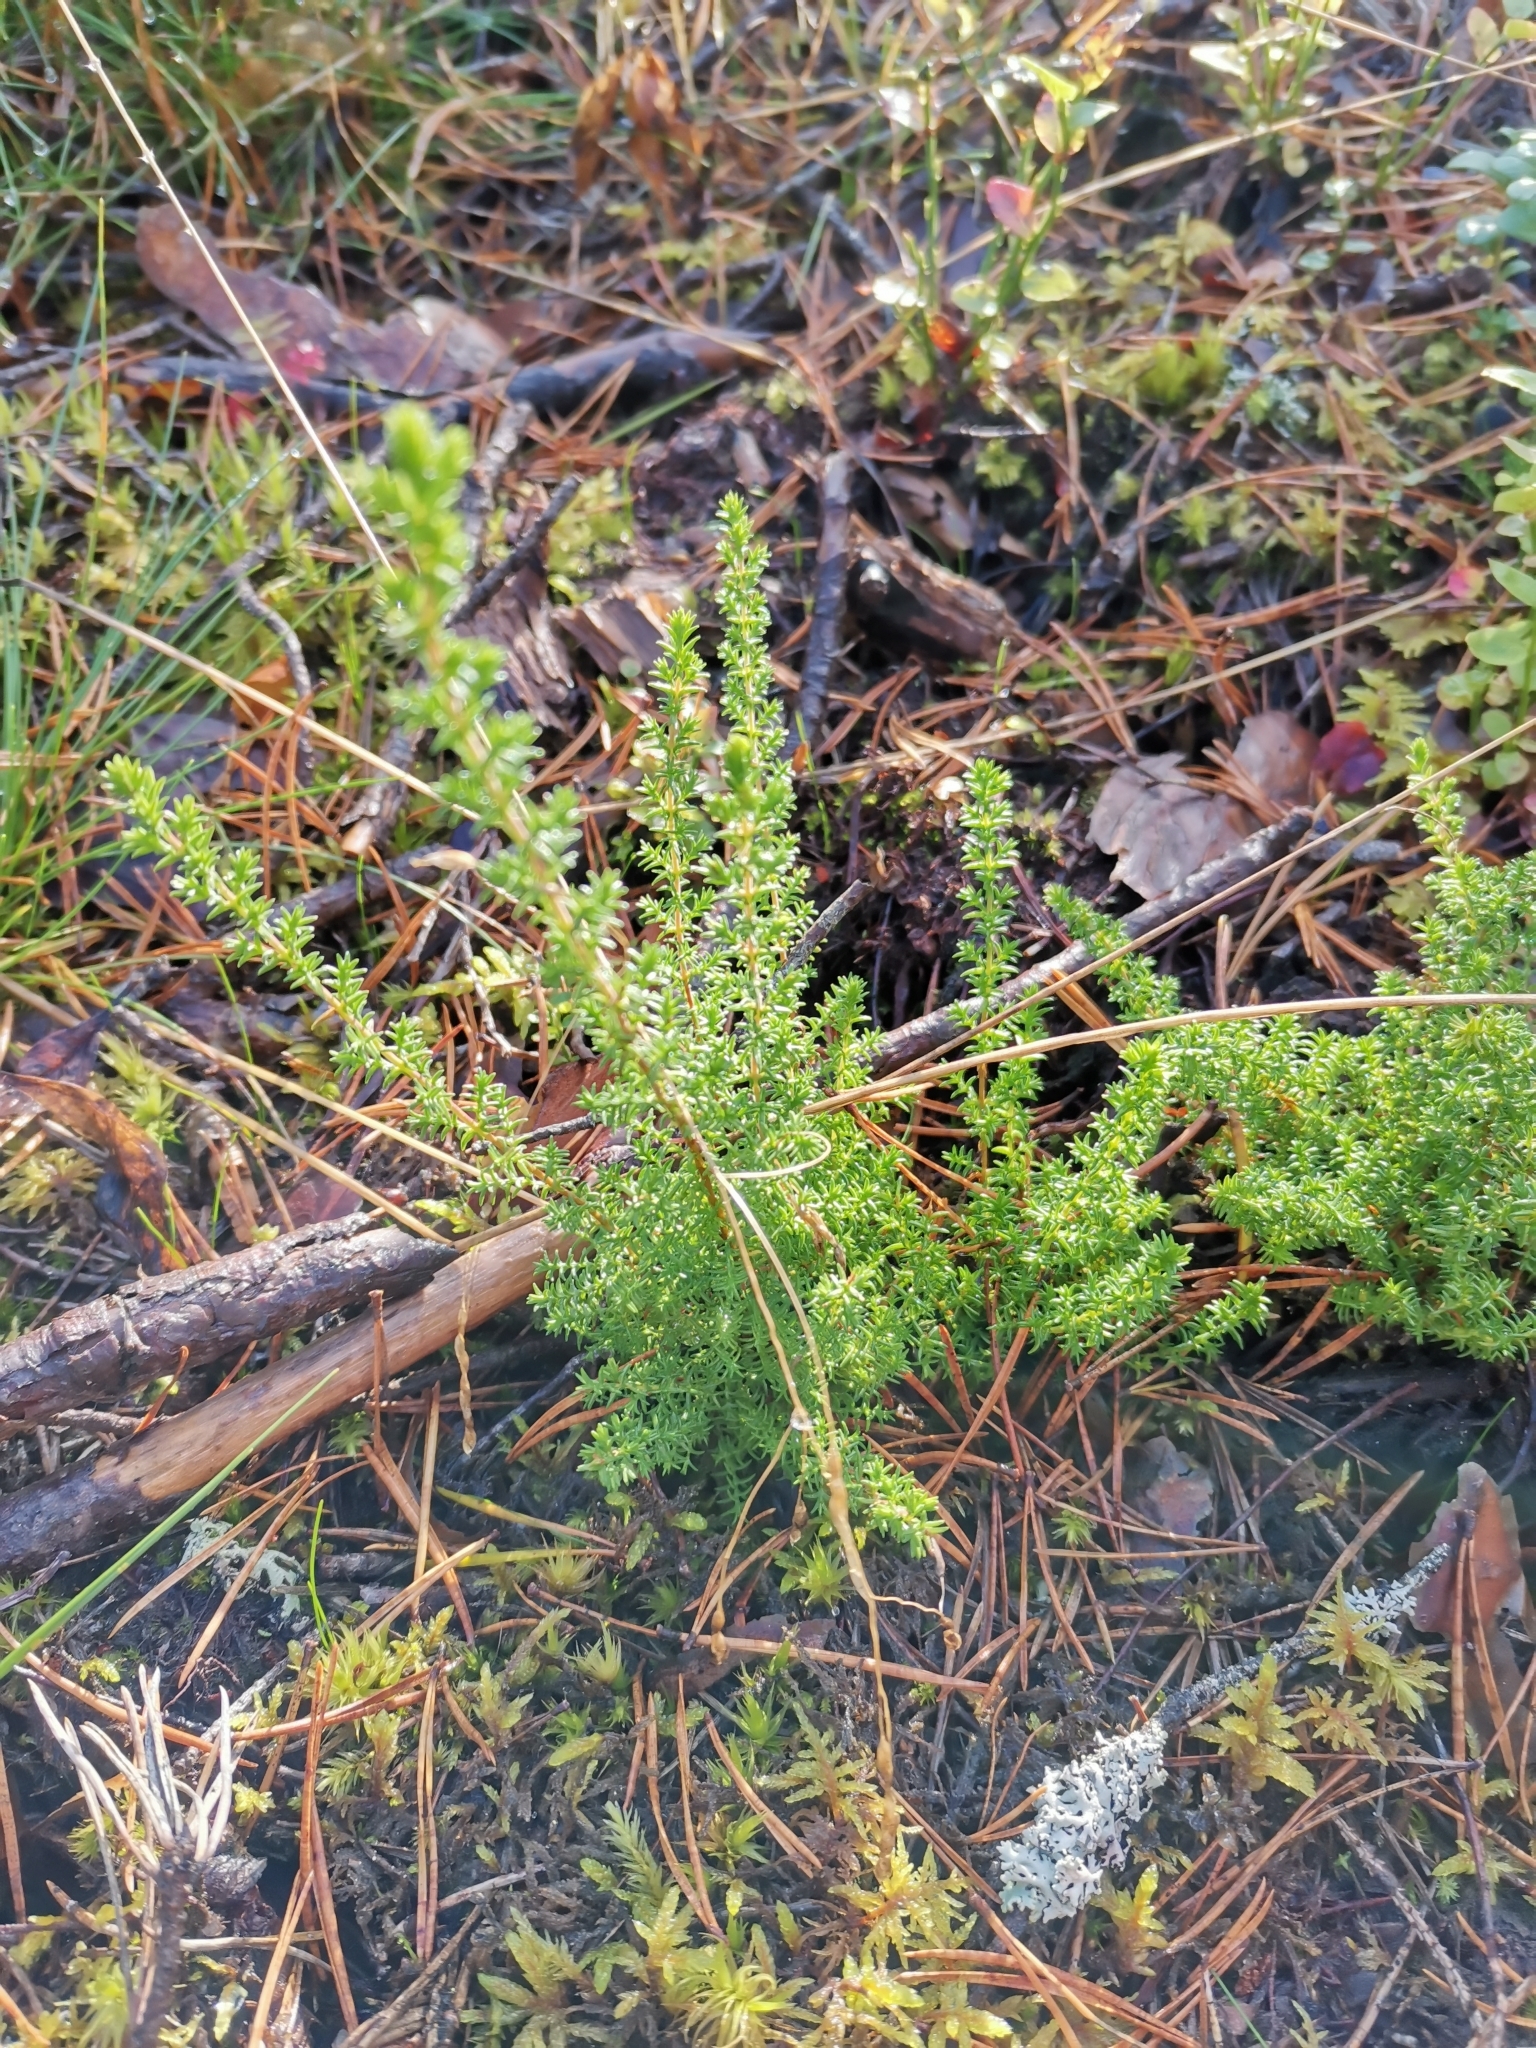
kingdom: Plantae
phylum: Tracheophyta
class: Magnoliopsida
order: Ericales
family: Ericaceae
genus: Calluna
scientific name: Calluna vulgaris
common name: Heather
